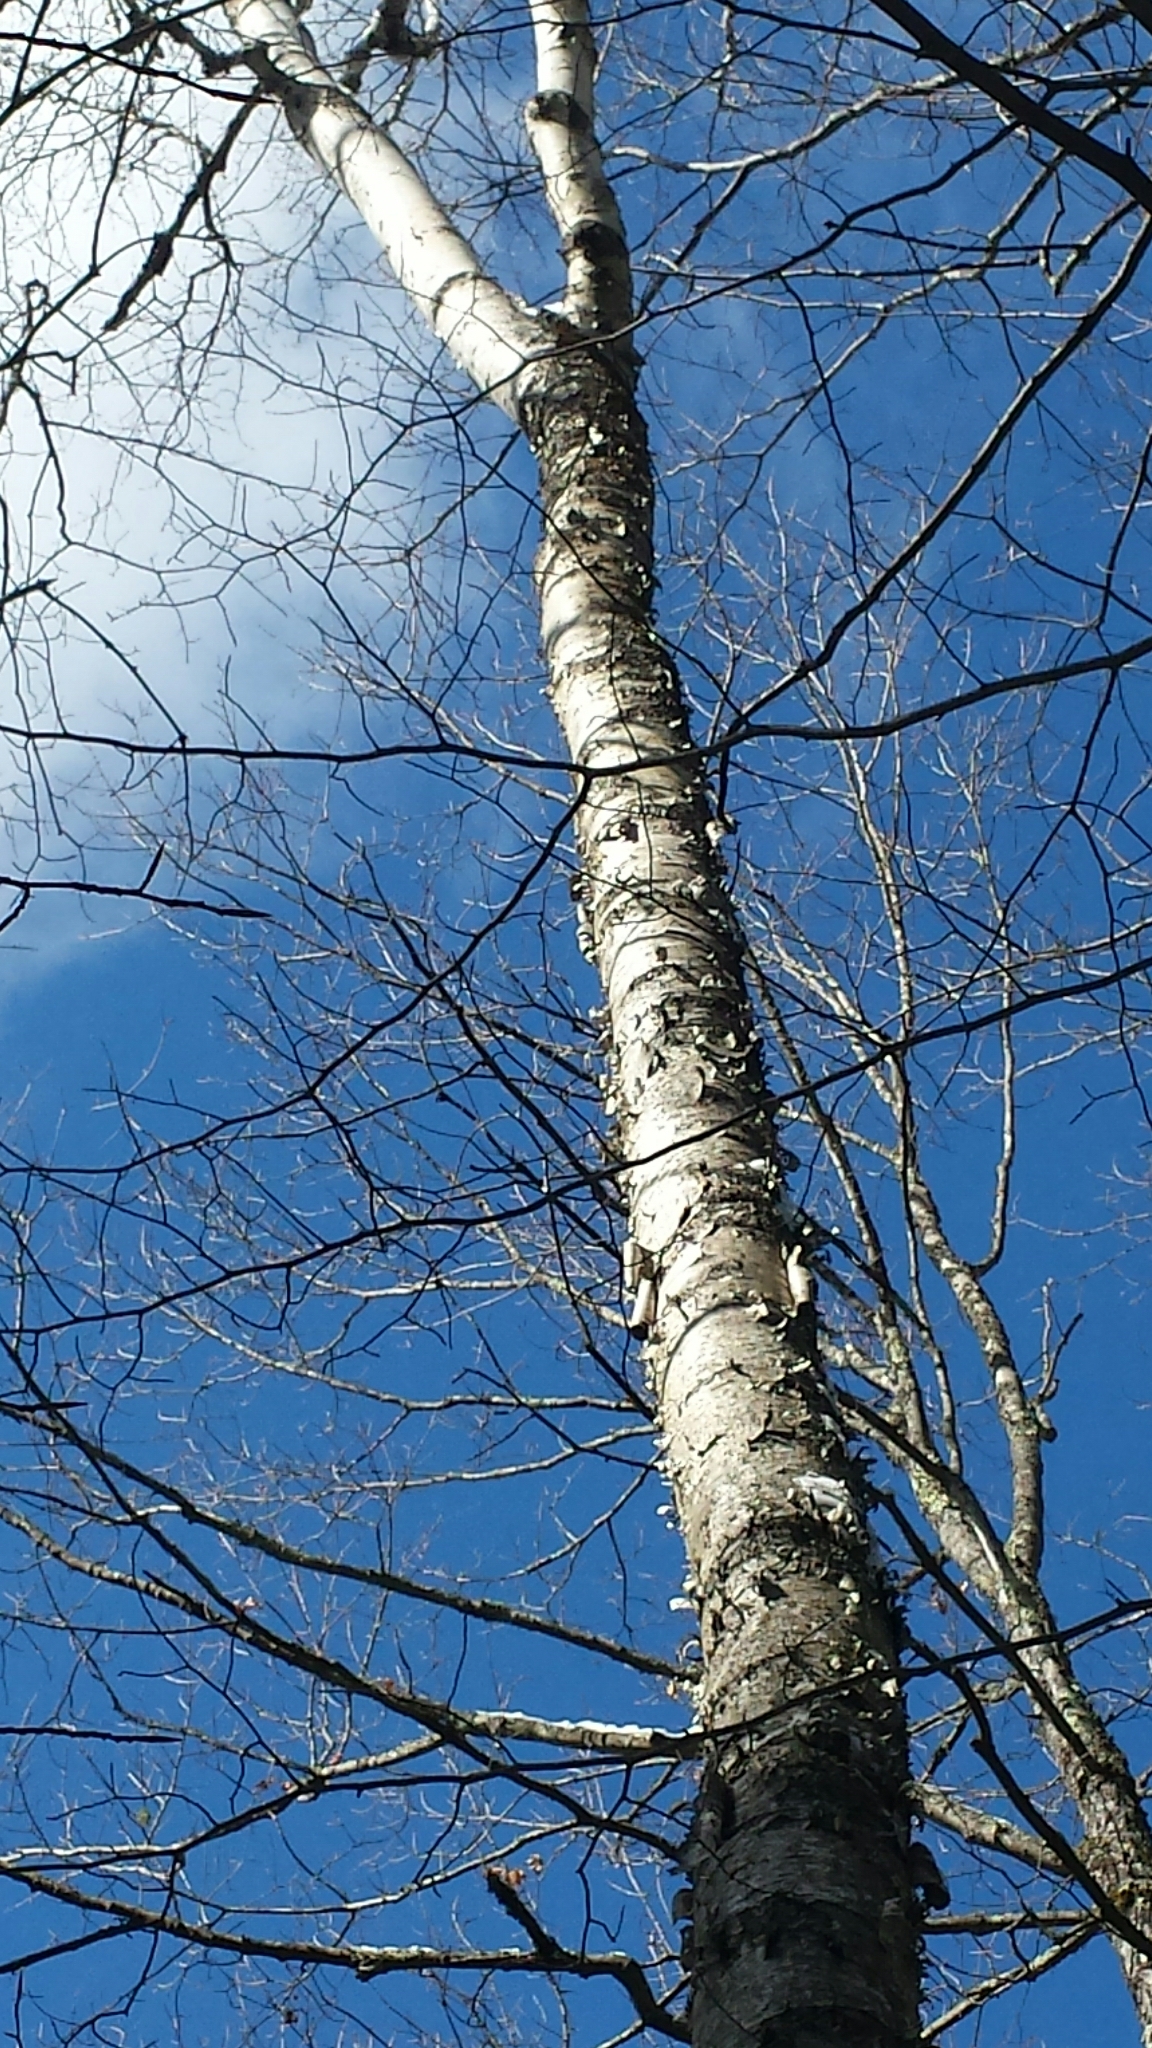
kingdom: Plantae
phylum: Tracheophyta
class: Magnoliopsida
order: Fagales
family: Betulaceae
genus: Betula
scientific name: Betula papyrifera
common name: Paper birch
